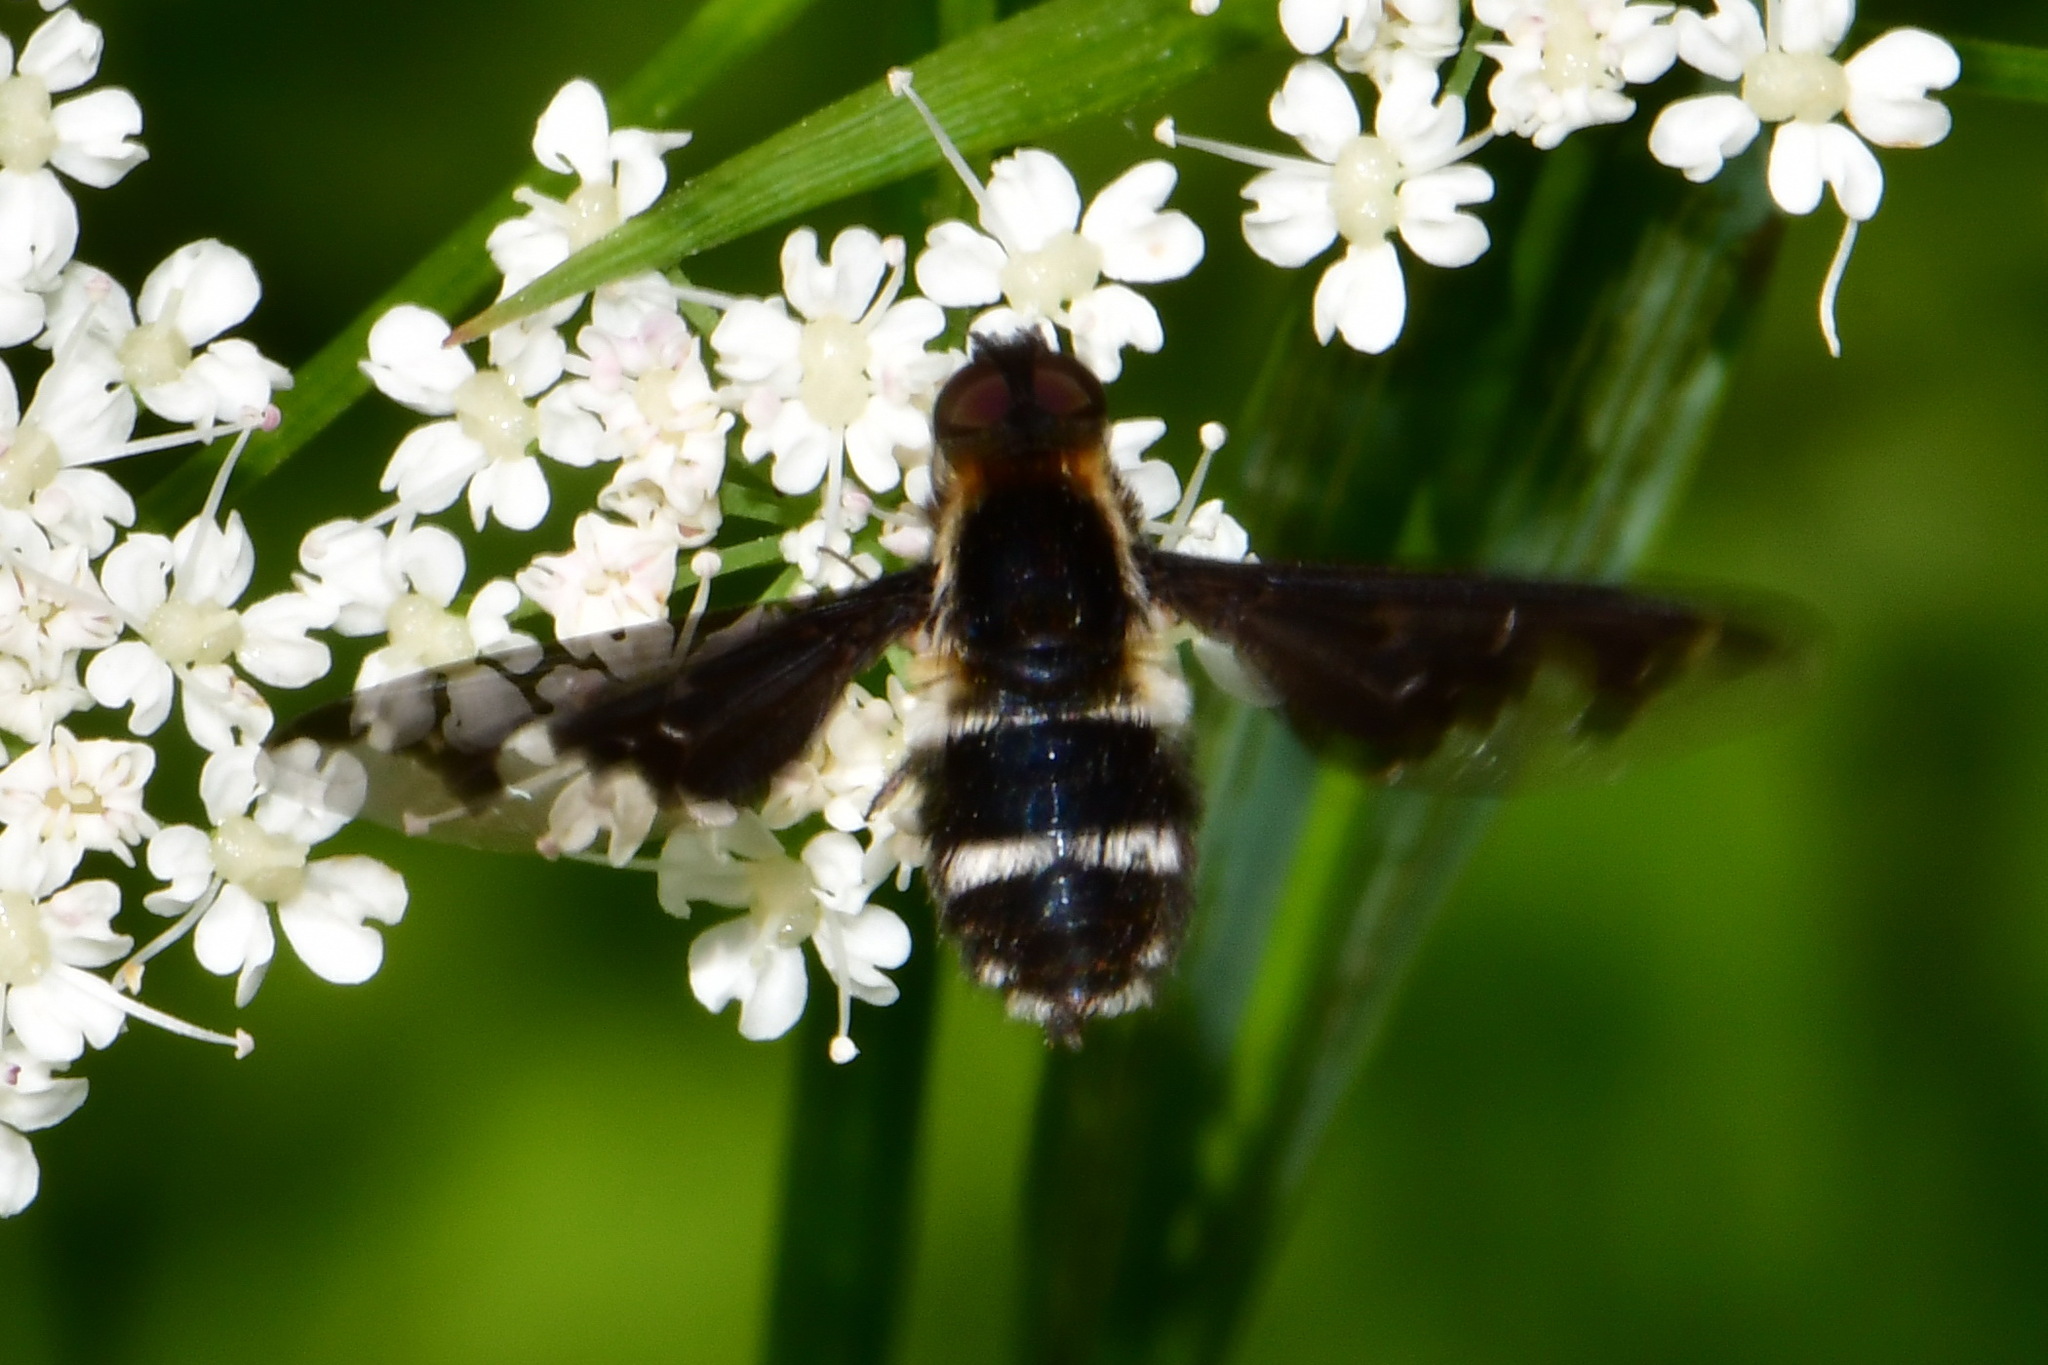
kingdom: Animalia
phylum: Arthropoda
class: Insecta
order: Diptera
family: Bombyliidae
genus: Hemipenthes
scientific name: Hemipenthes maura
